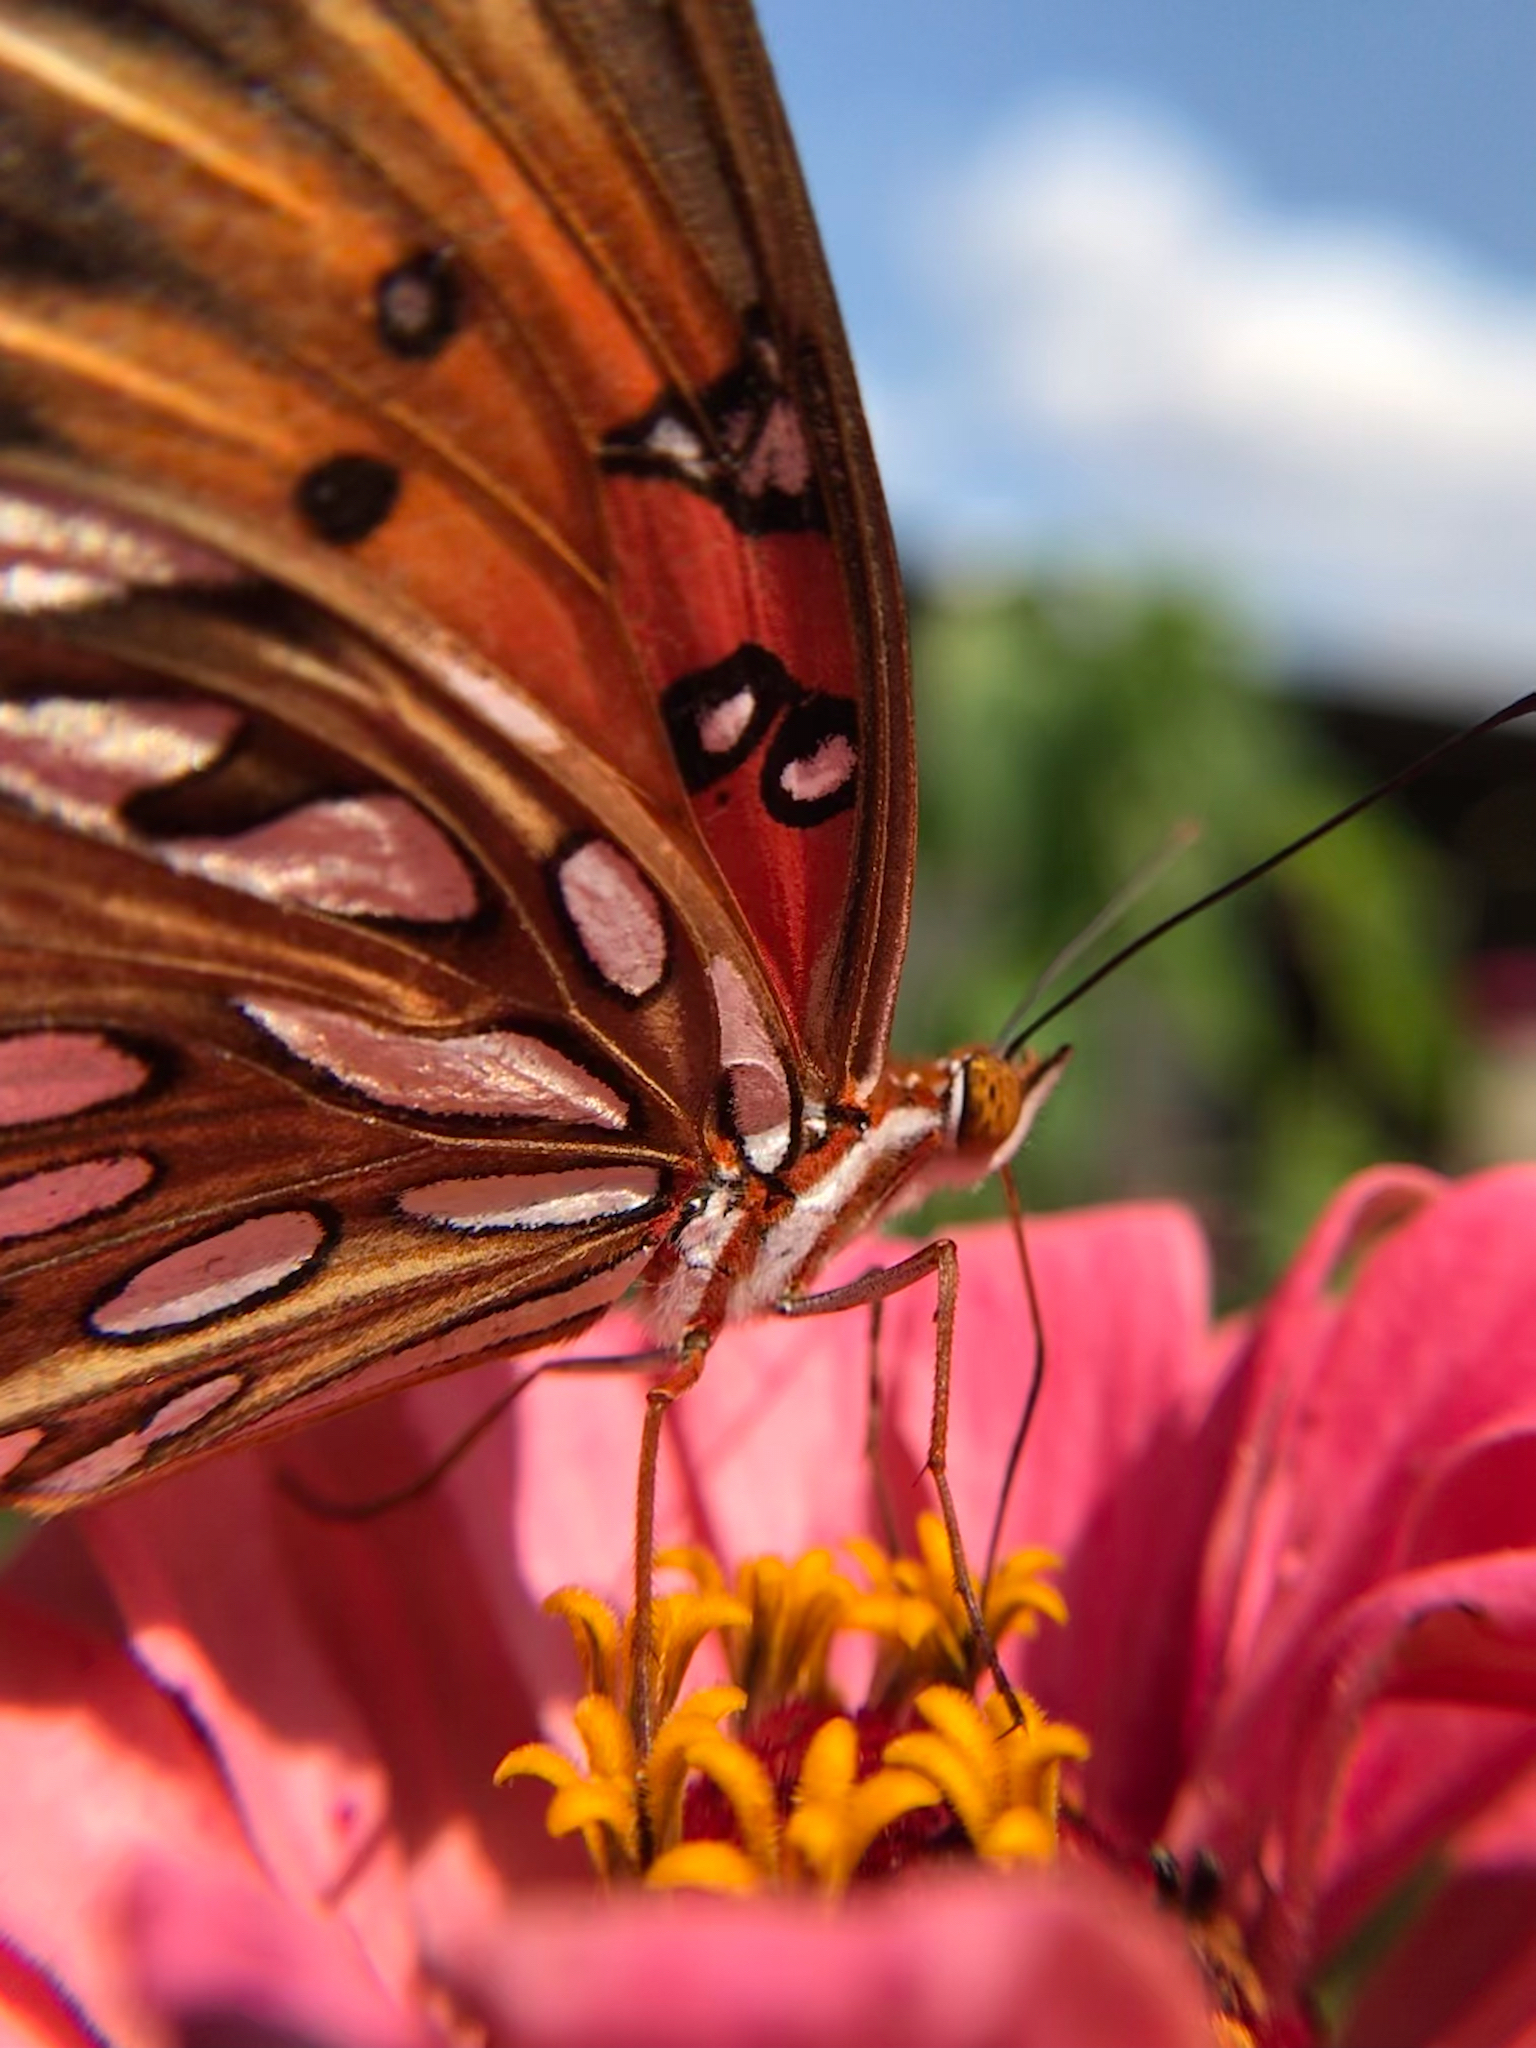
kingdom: Animalia
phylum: Arthropoda
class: Insecta
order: Lepidoptera
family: Nymphalidae
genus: Dione
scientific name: Dione vanillae
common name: Gulf fritillary
